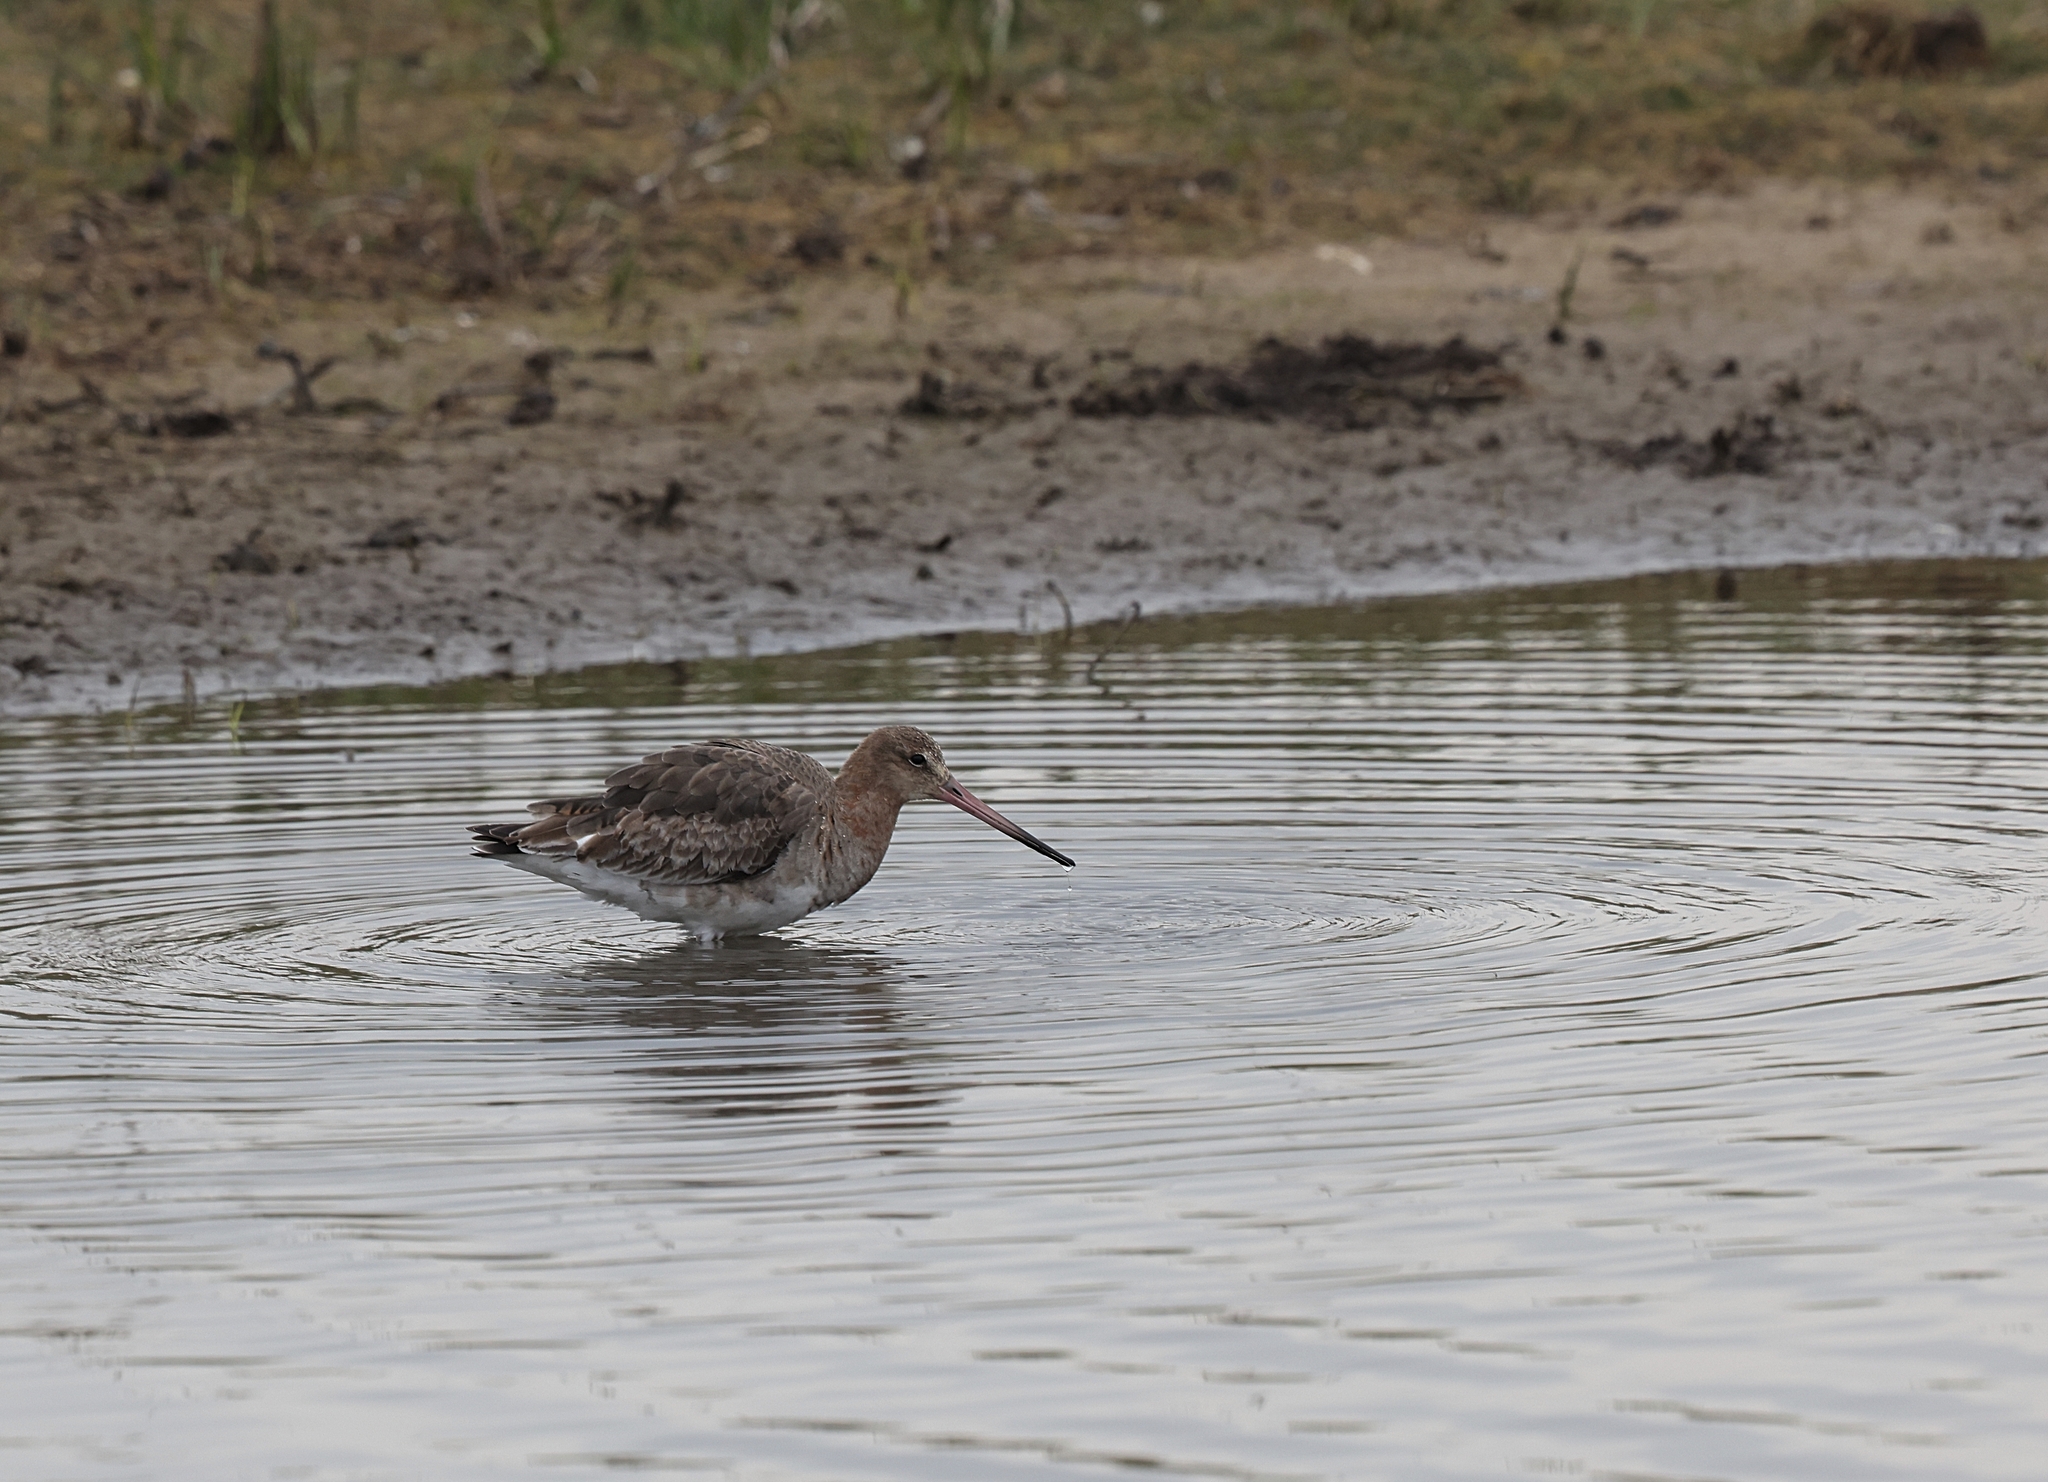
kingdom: Animalia
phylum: Chordata
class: Aves
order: Charadriiformes
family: Scolopacidae
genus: Limosa
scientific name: Limosa limosa
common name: Black-tailed godwit
